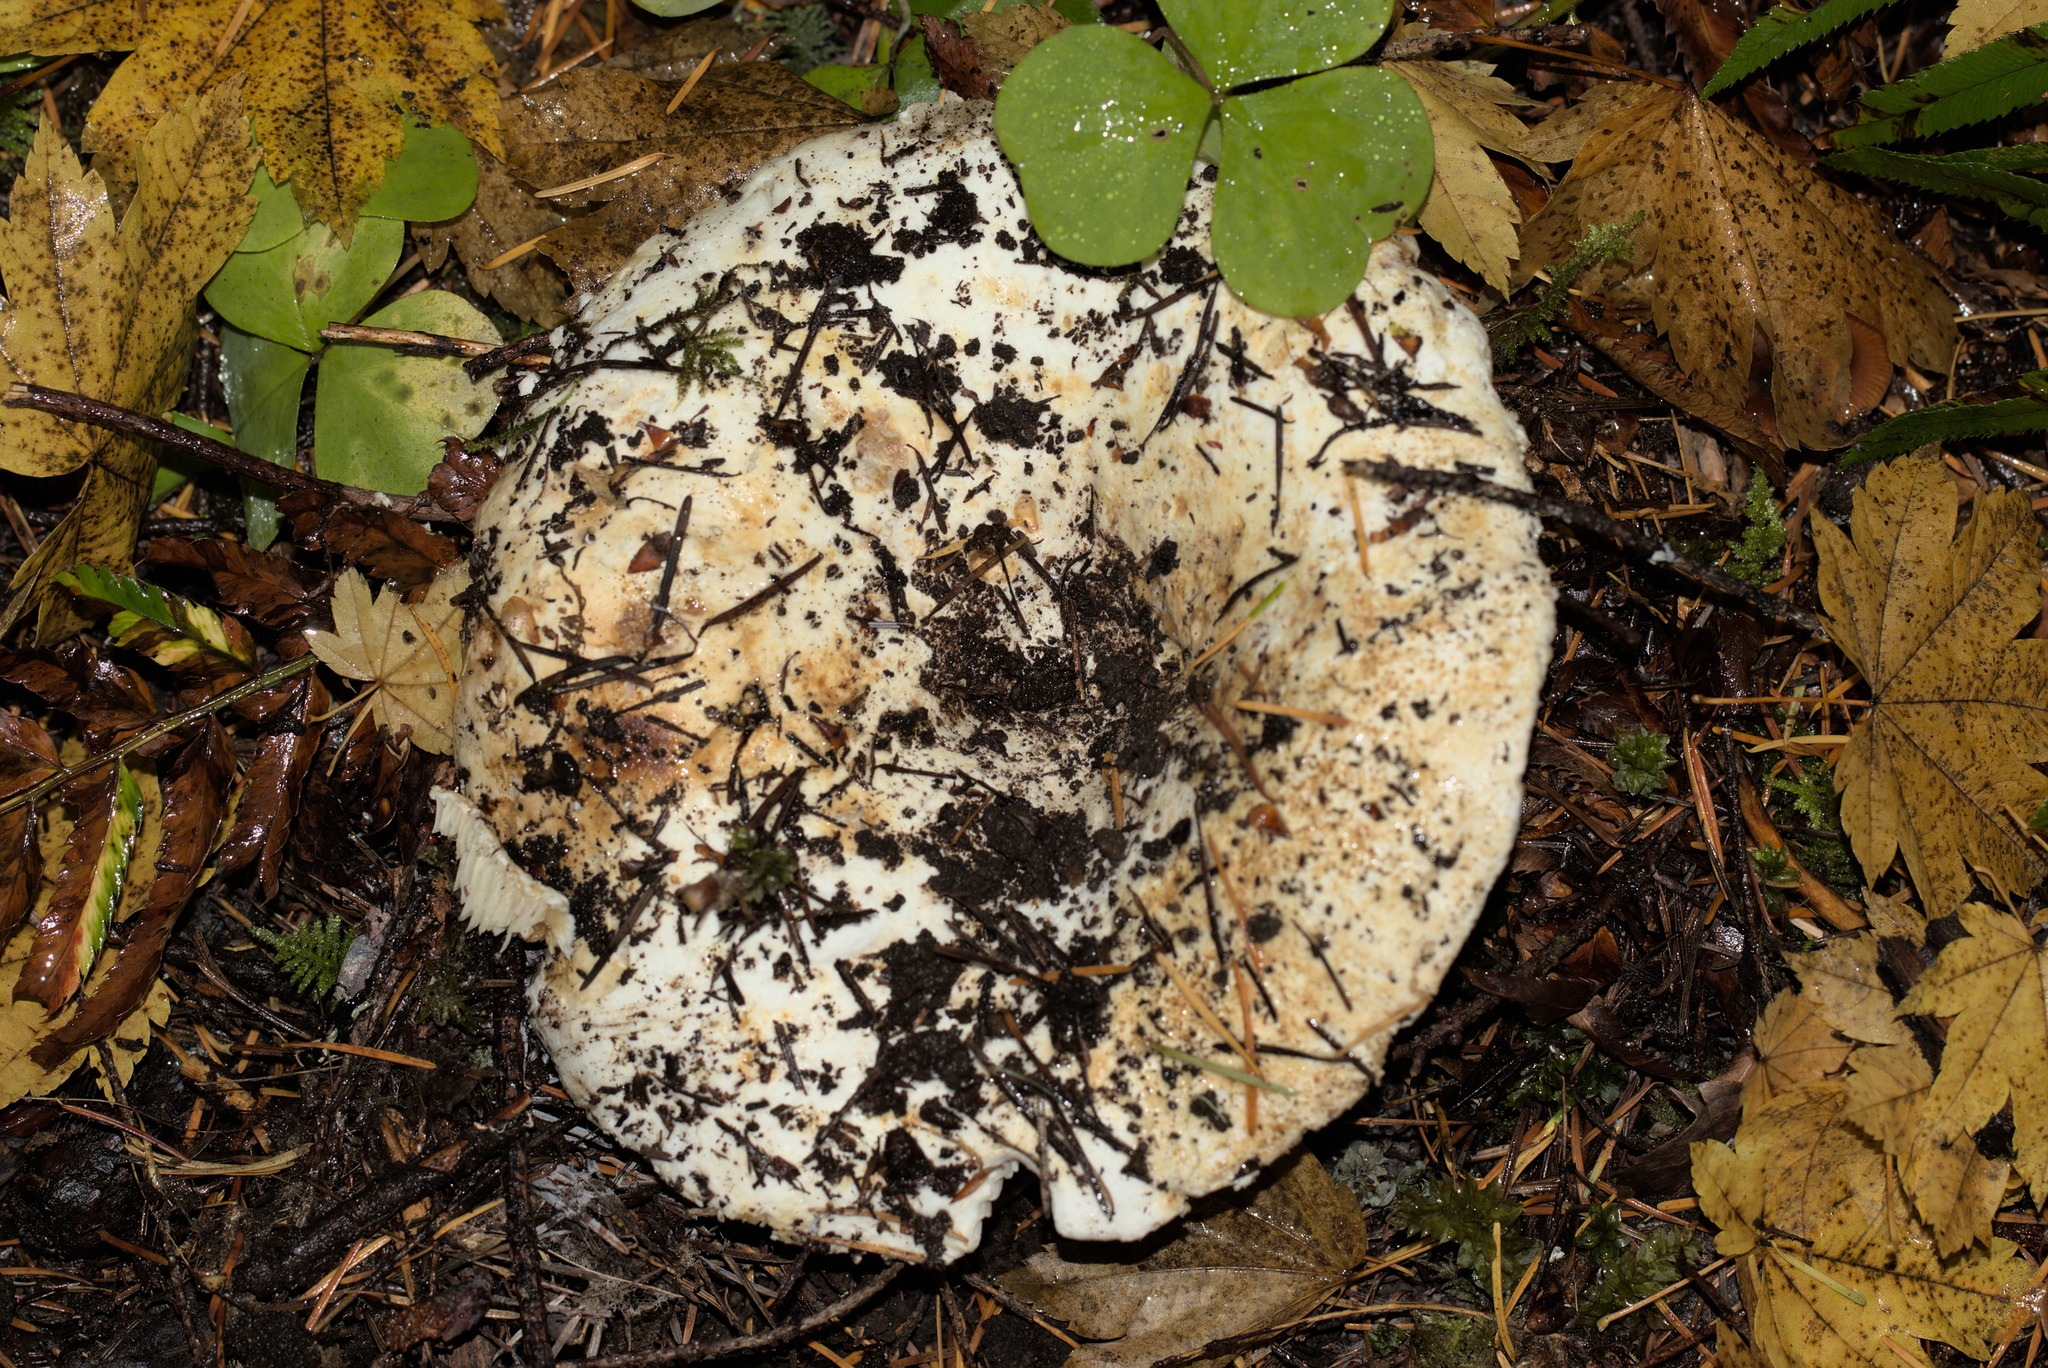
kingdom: Fungi
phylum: Basidiomycota
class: Agaricomycetes
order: Russulales
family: Russulaceae
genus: Russula
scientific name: Russula brevipes
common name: Short-stemmed russula
